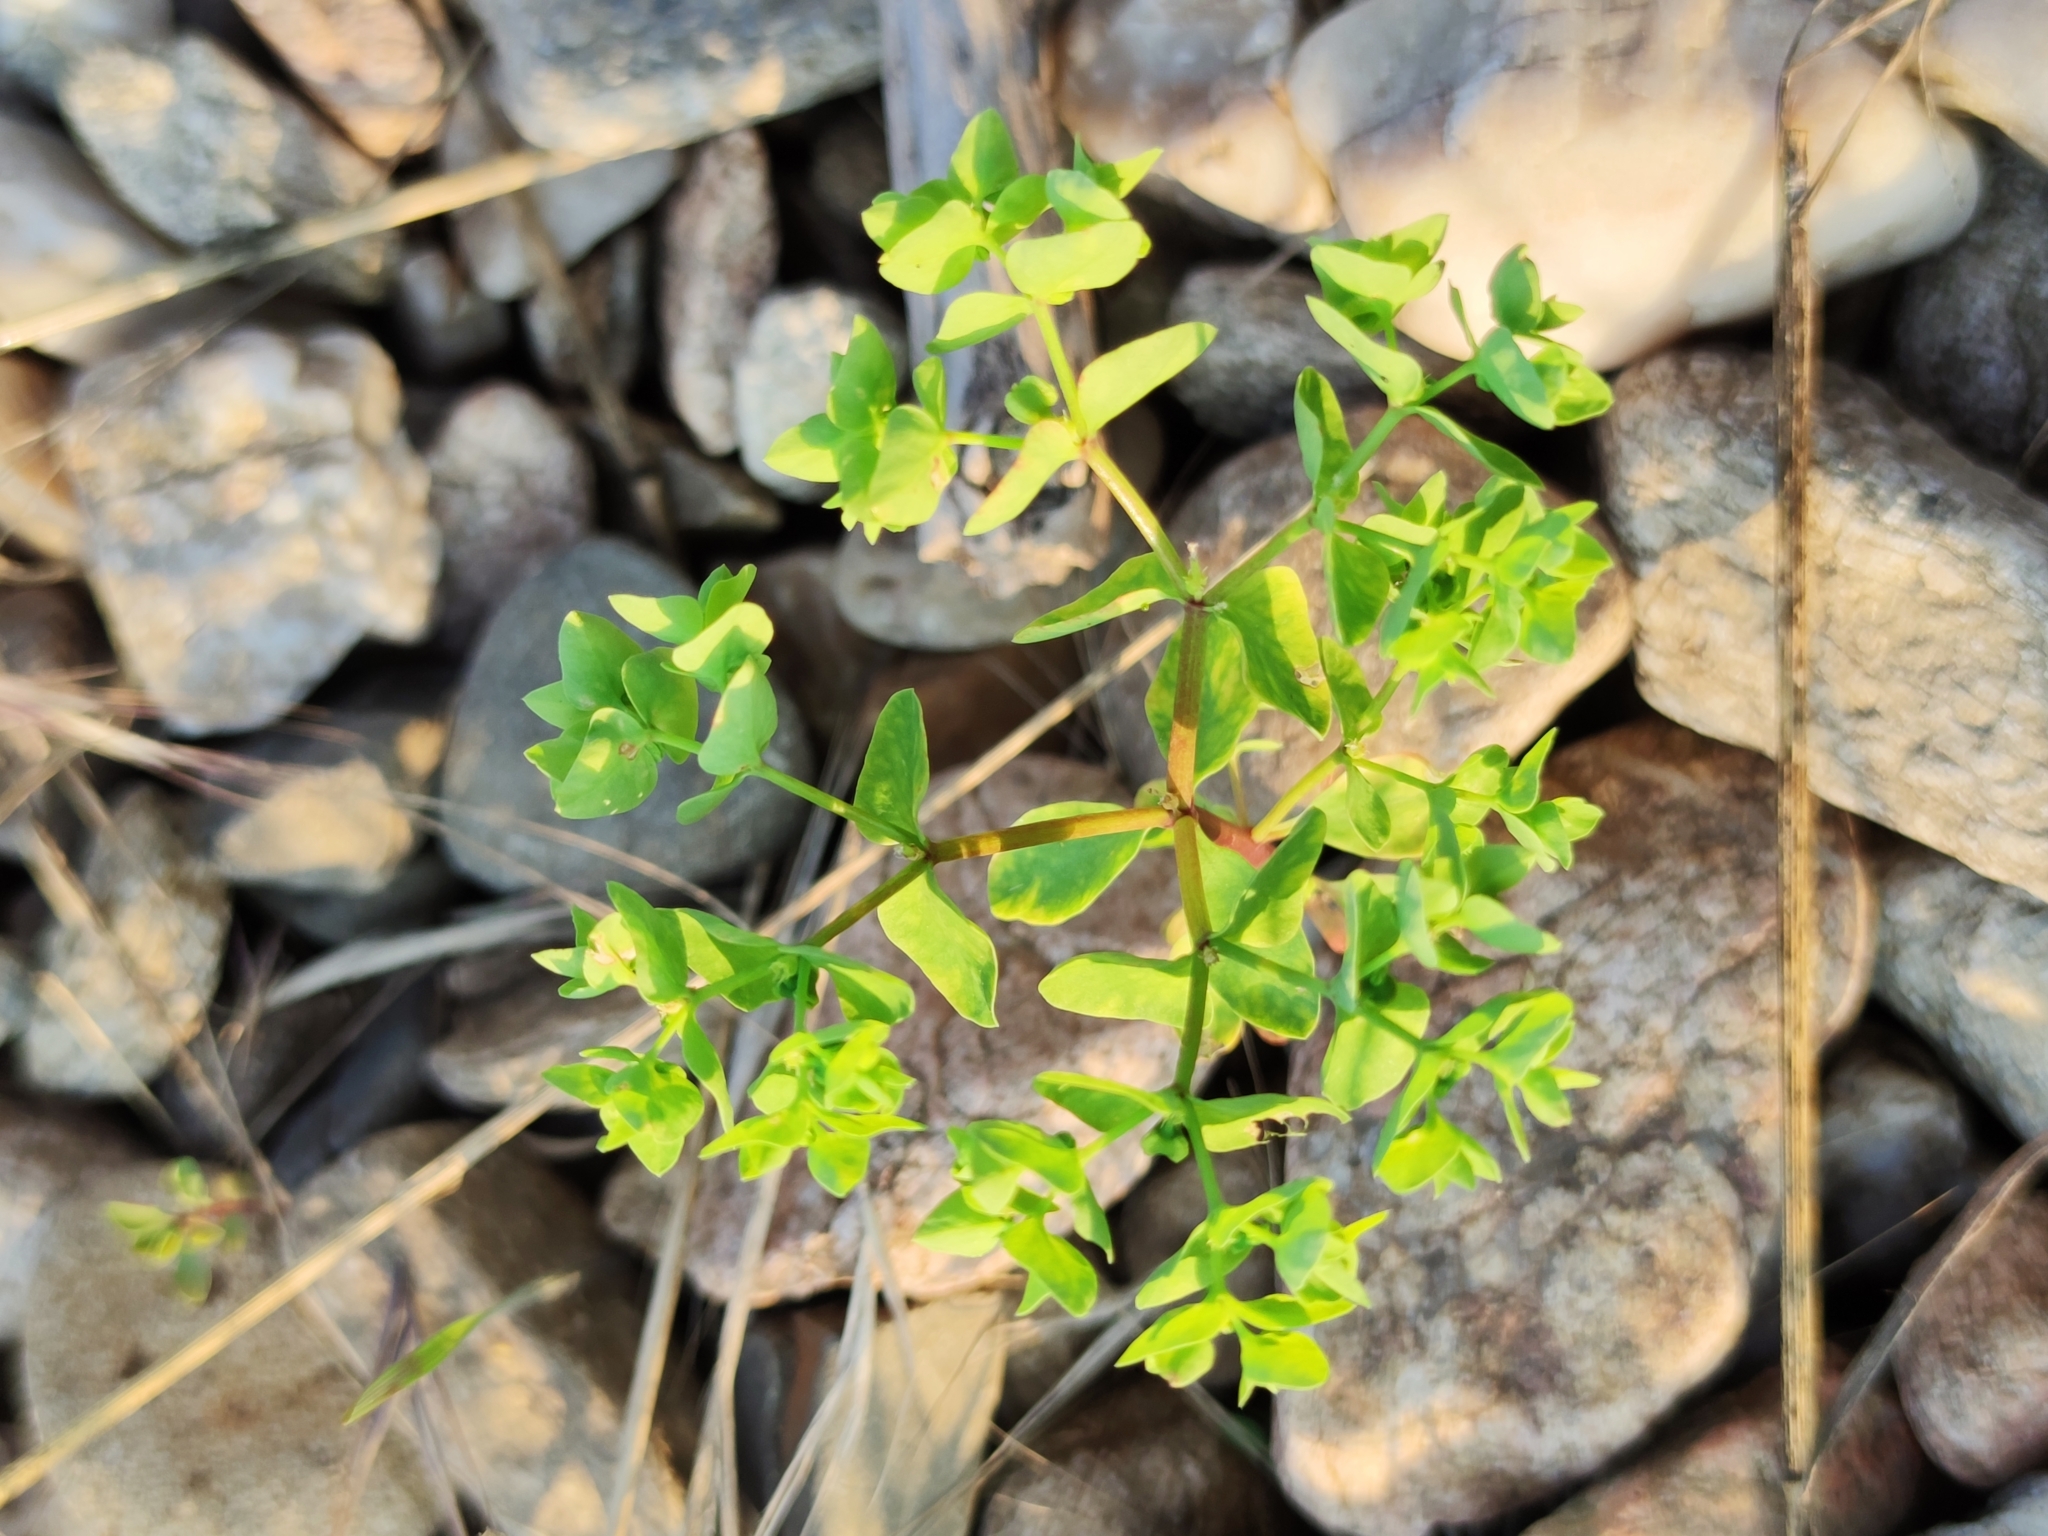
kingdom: Plantae
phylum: Tracheophyta
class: Magnoliopsida
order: Malpighiales
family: Euphorbiaceae
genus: Euphorbia
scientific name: Euphorbia peplus
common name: Petty spurge
